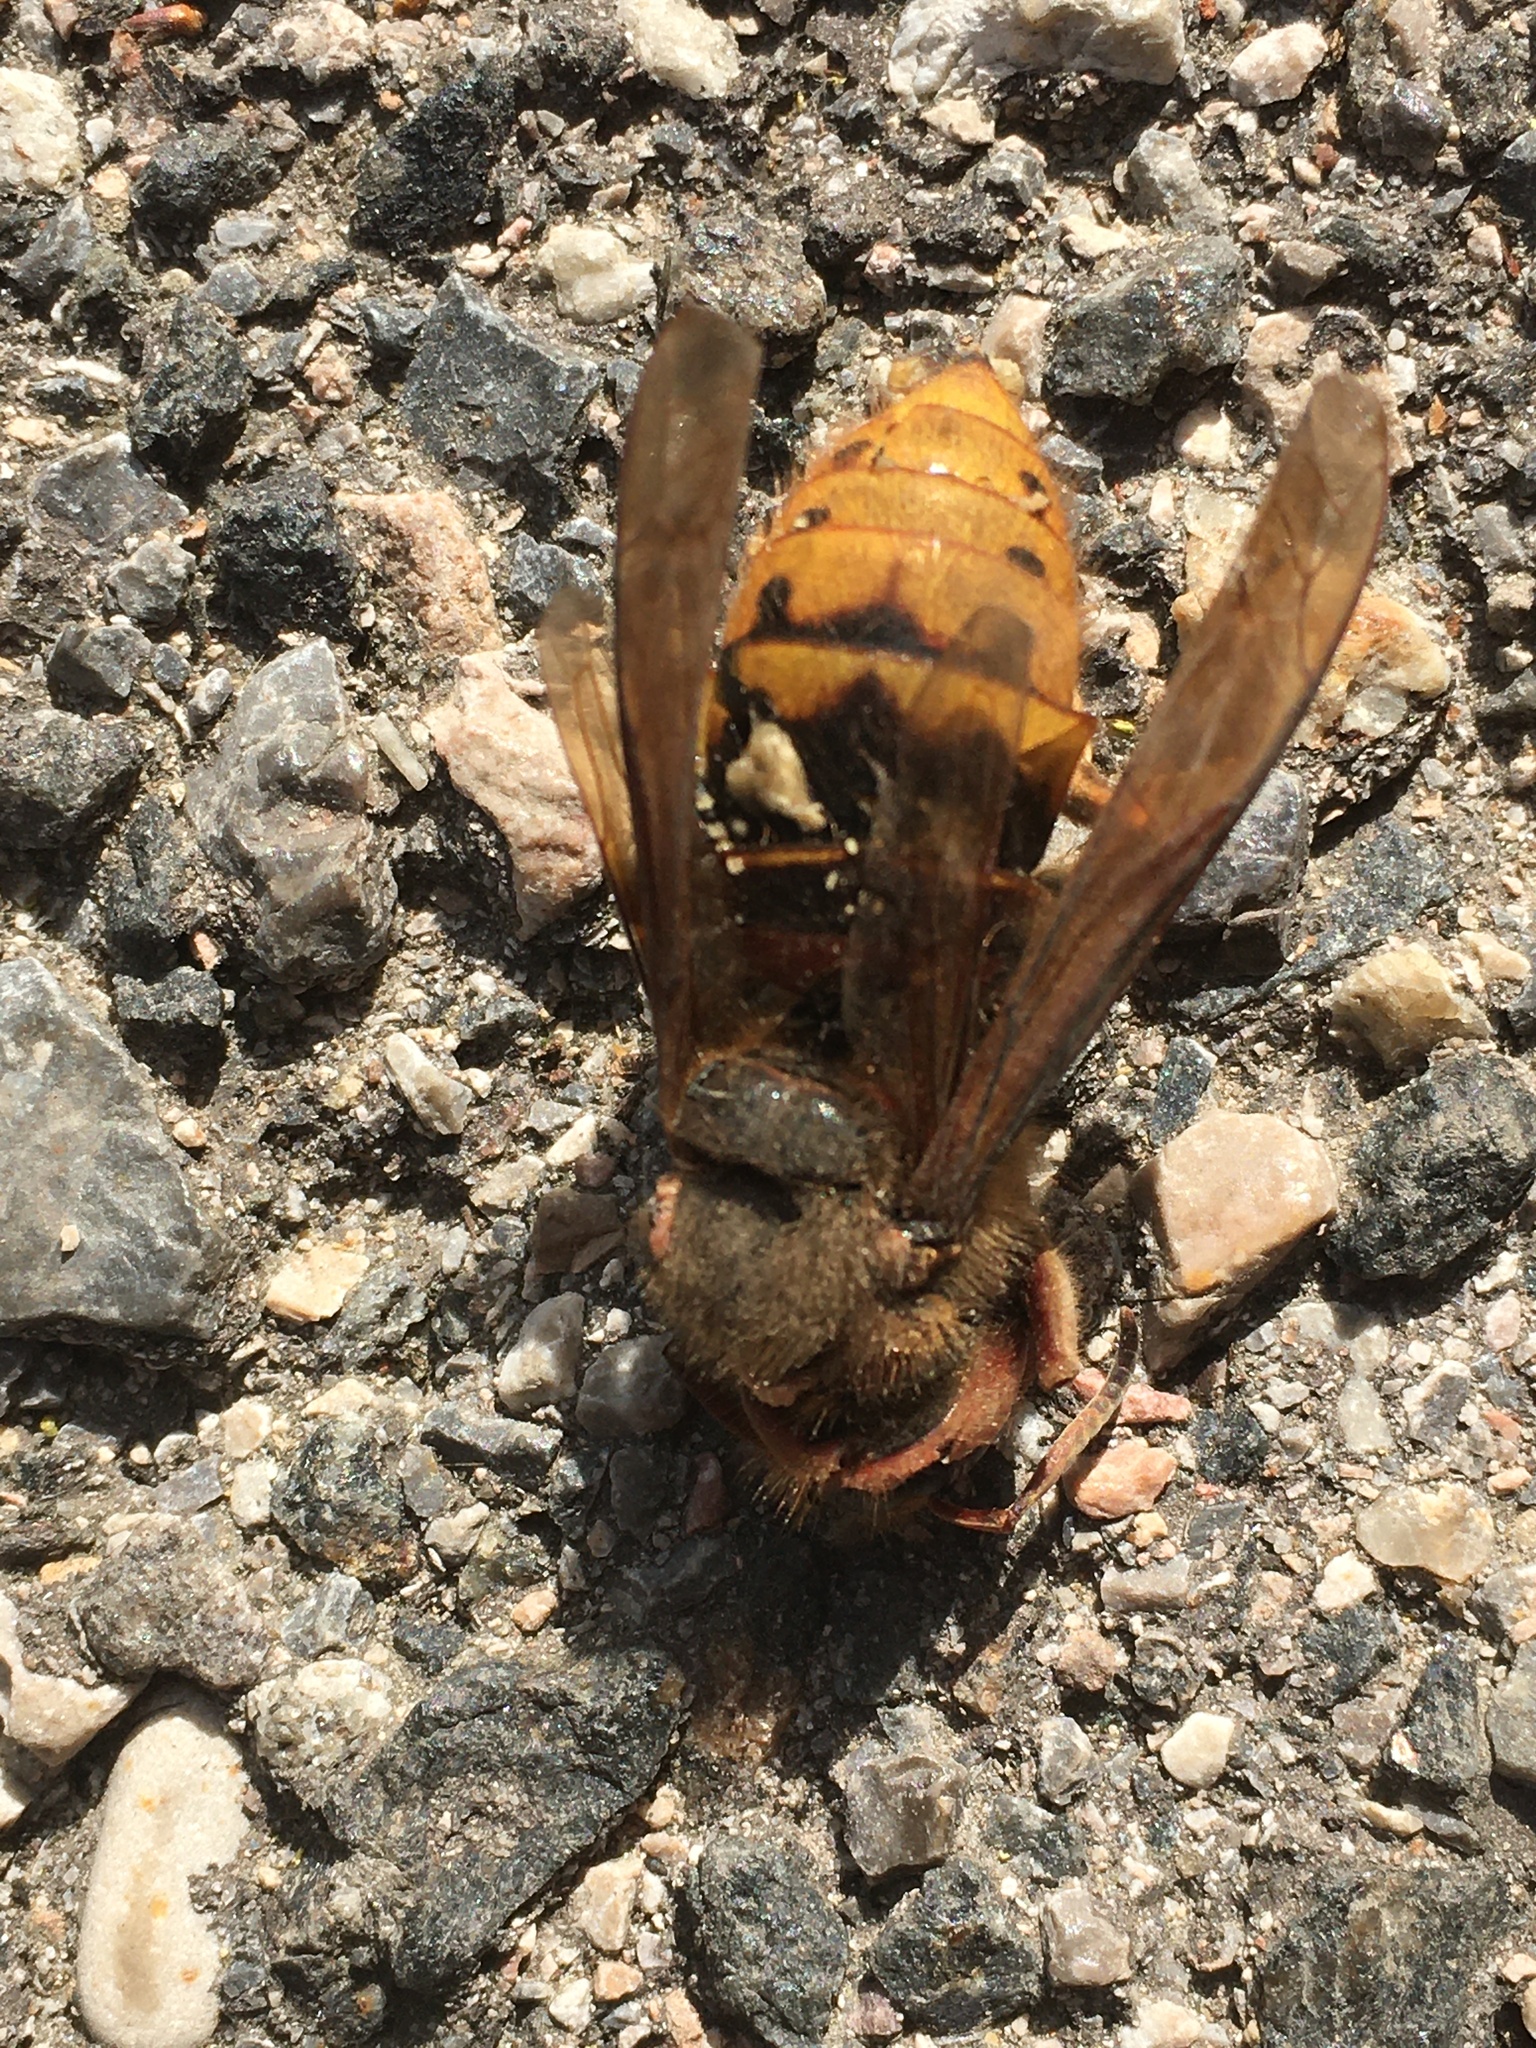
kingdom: Animalia
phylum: Arthropoda
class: Insecta
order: Hymenoptera
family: Vespidae
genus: Vespa
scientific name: Vespa crabro
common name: Hornet
